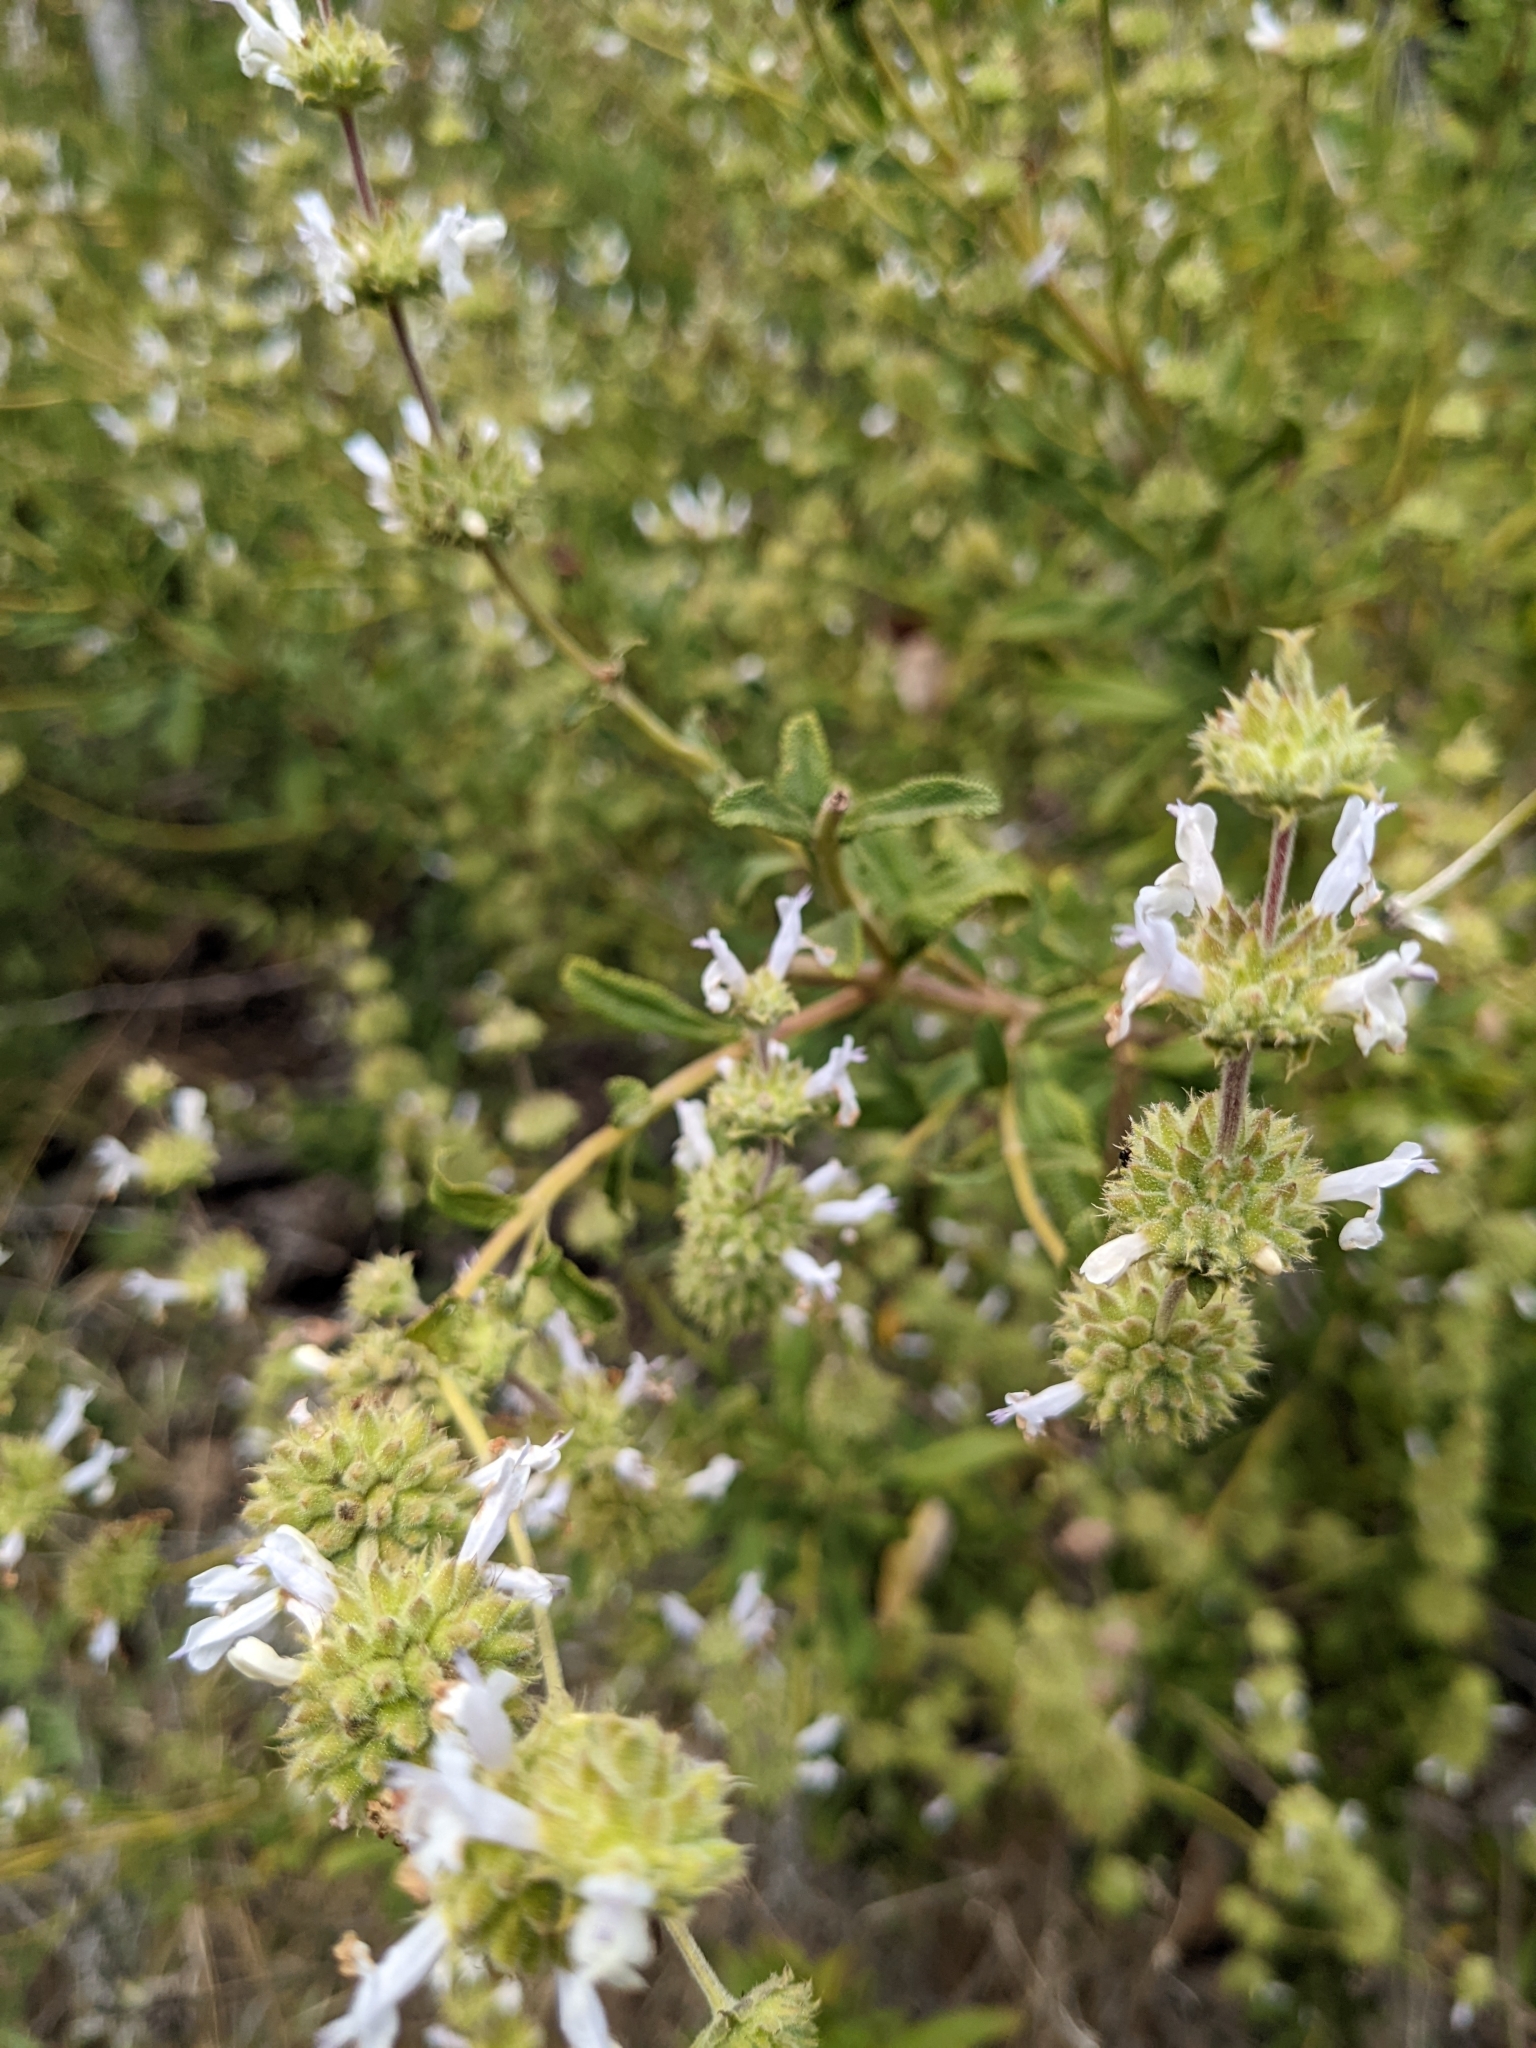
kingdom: Plantae
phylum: Tracheophyta
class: Magnoliopsida
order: Lamiales
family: Lamiaceae
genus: Salvia
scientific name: Salvia mellifera
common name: Black sage
